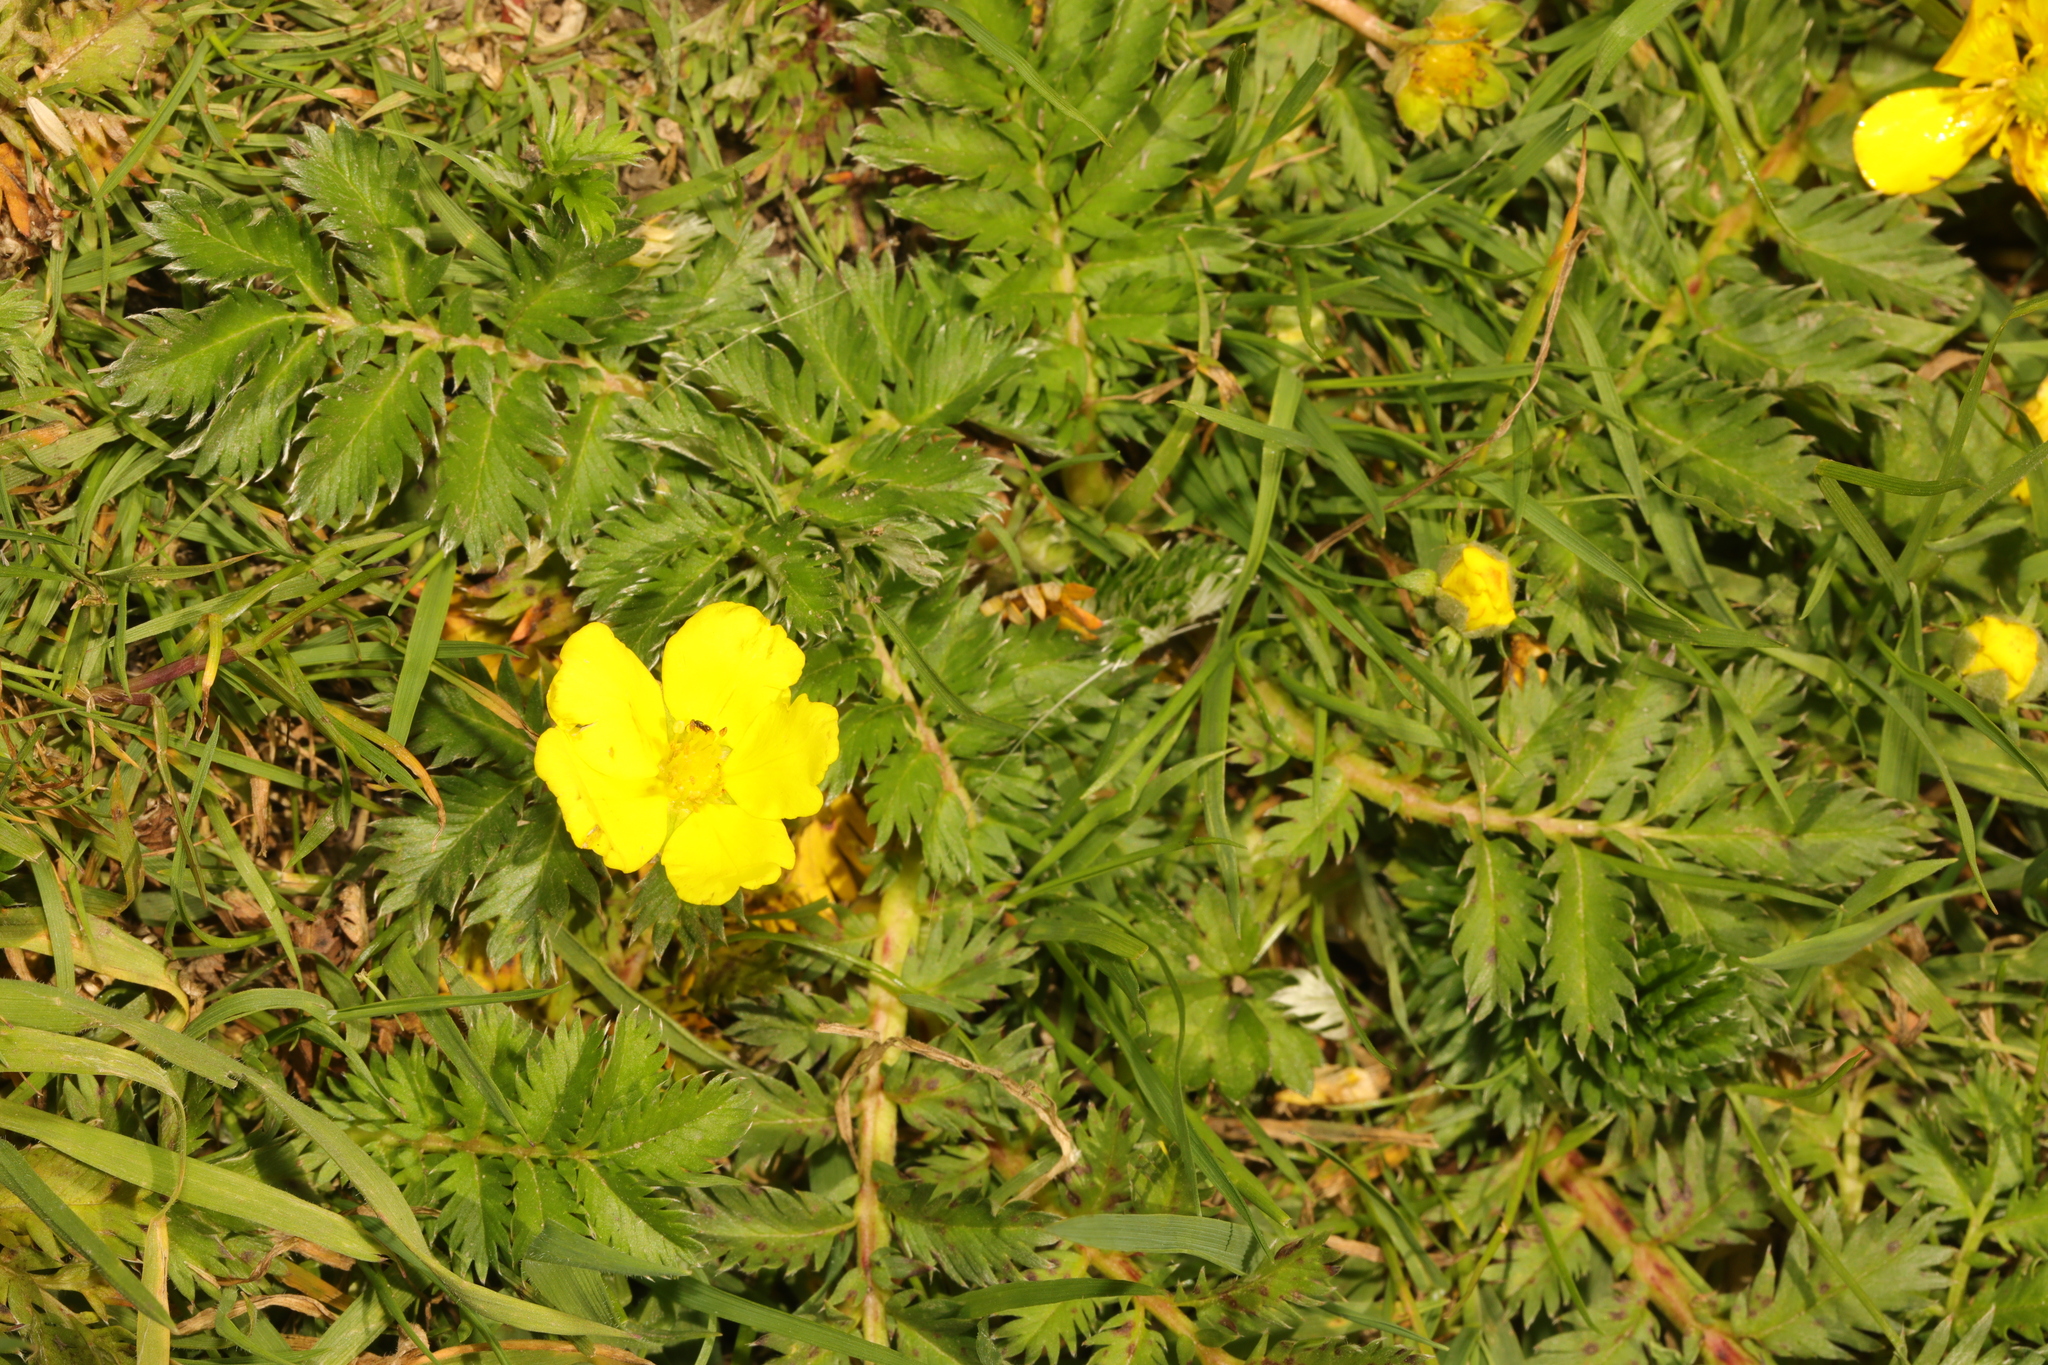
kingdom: Plantae
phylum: Tracheophyta
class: Magnoliopsida
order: Rosales
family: Rosaceae
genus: Argentina
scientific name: Argentina anserina
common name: Common silverweed
